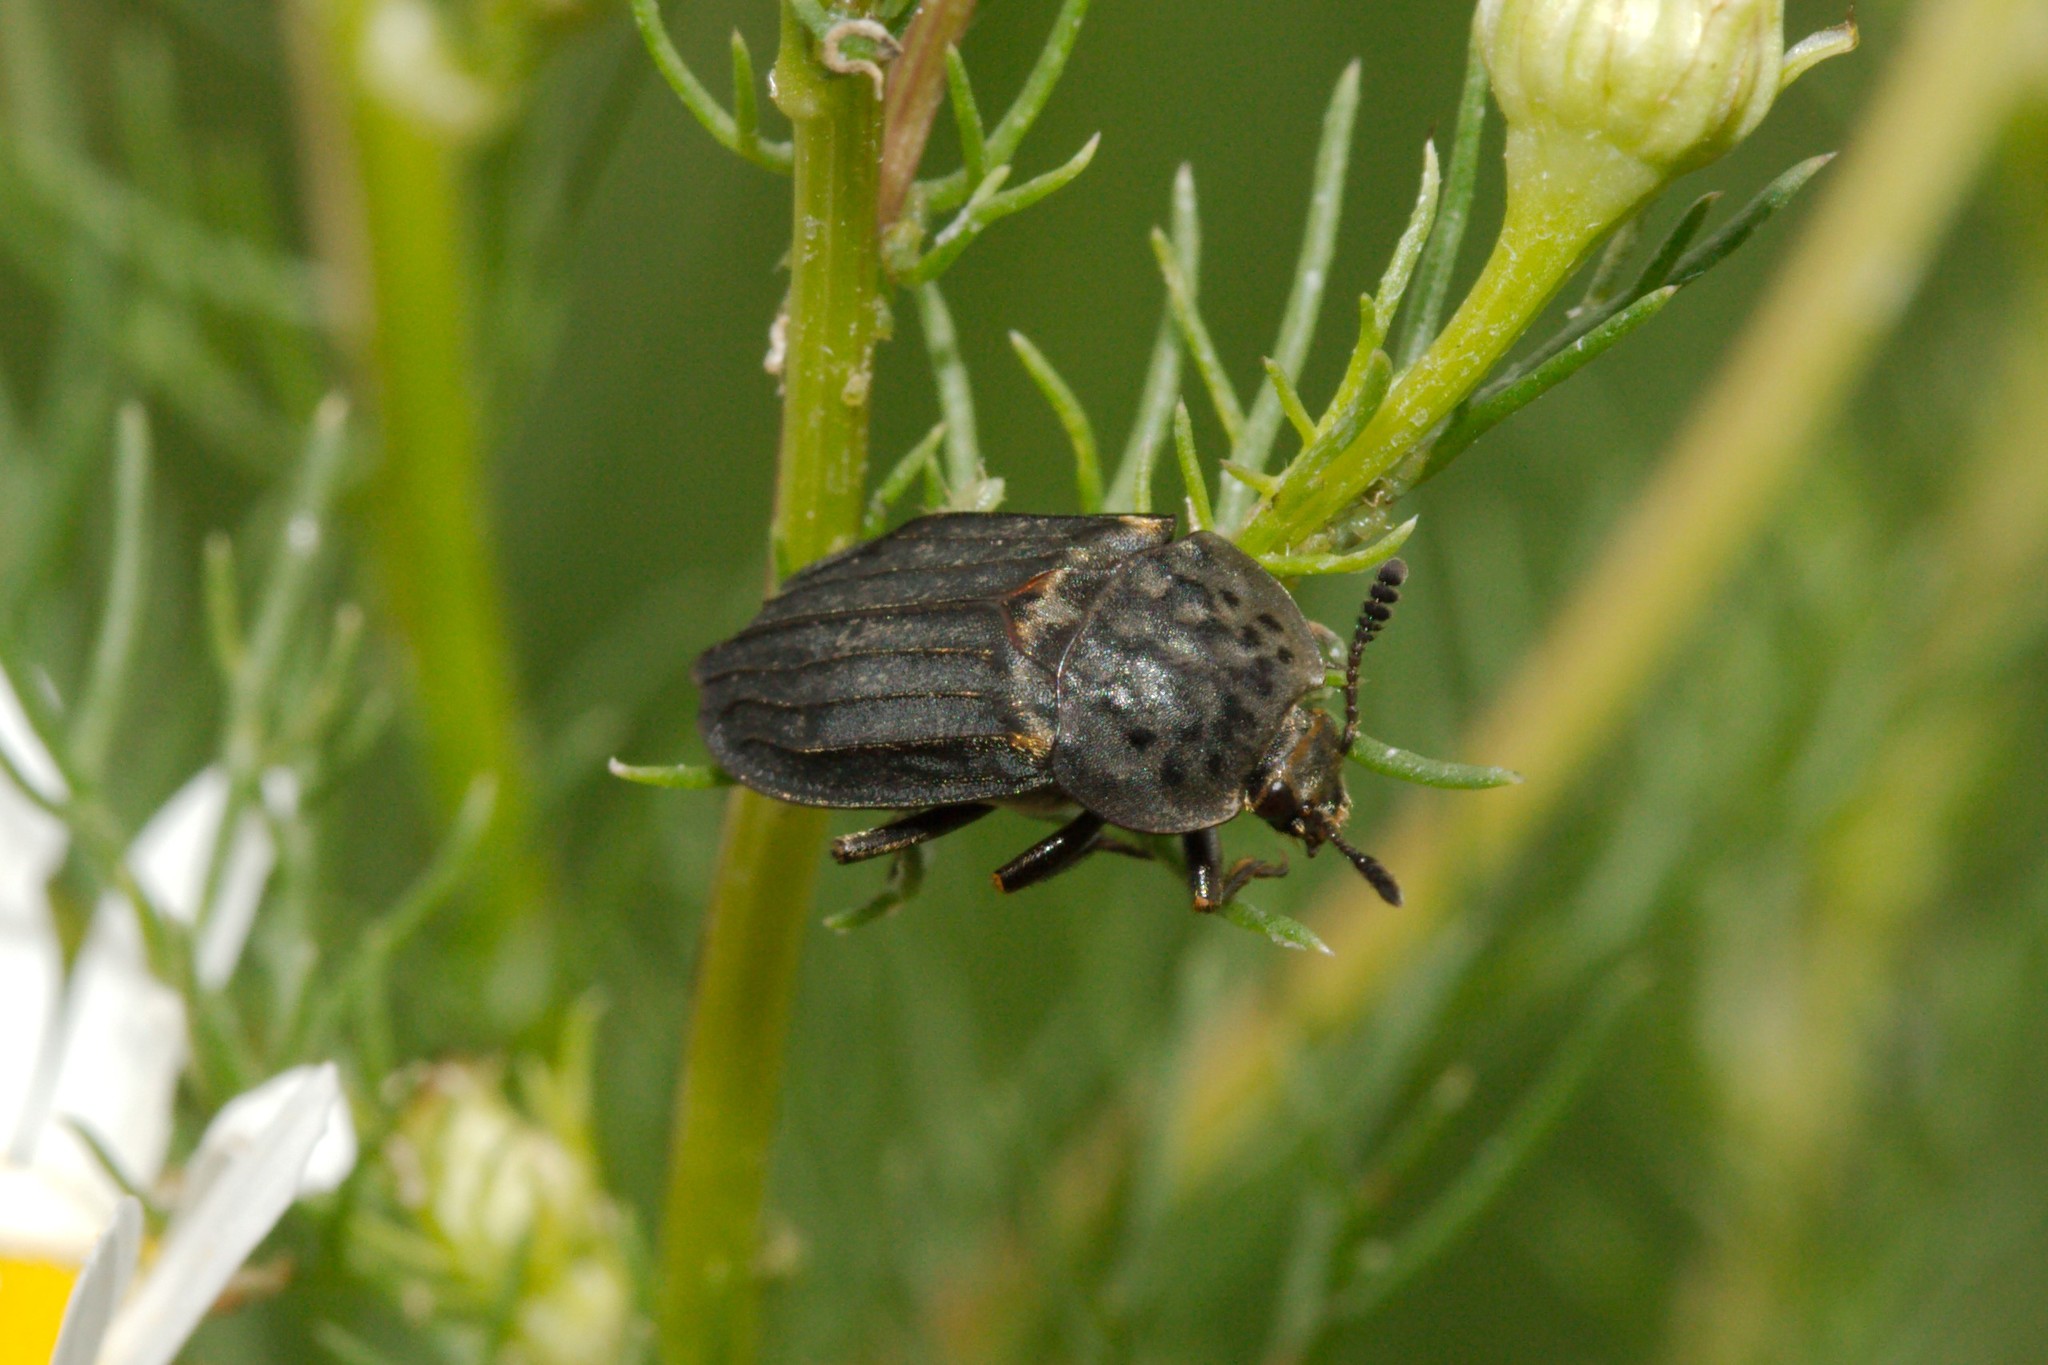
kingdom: Animalia
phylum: Arthropoda
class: Insecta
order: Coleoptera
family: Staphylinidae
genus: Thanatophilus
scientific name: Thanatophilus sinuatus
